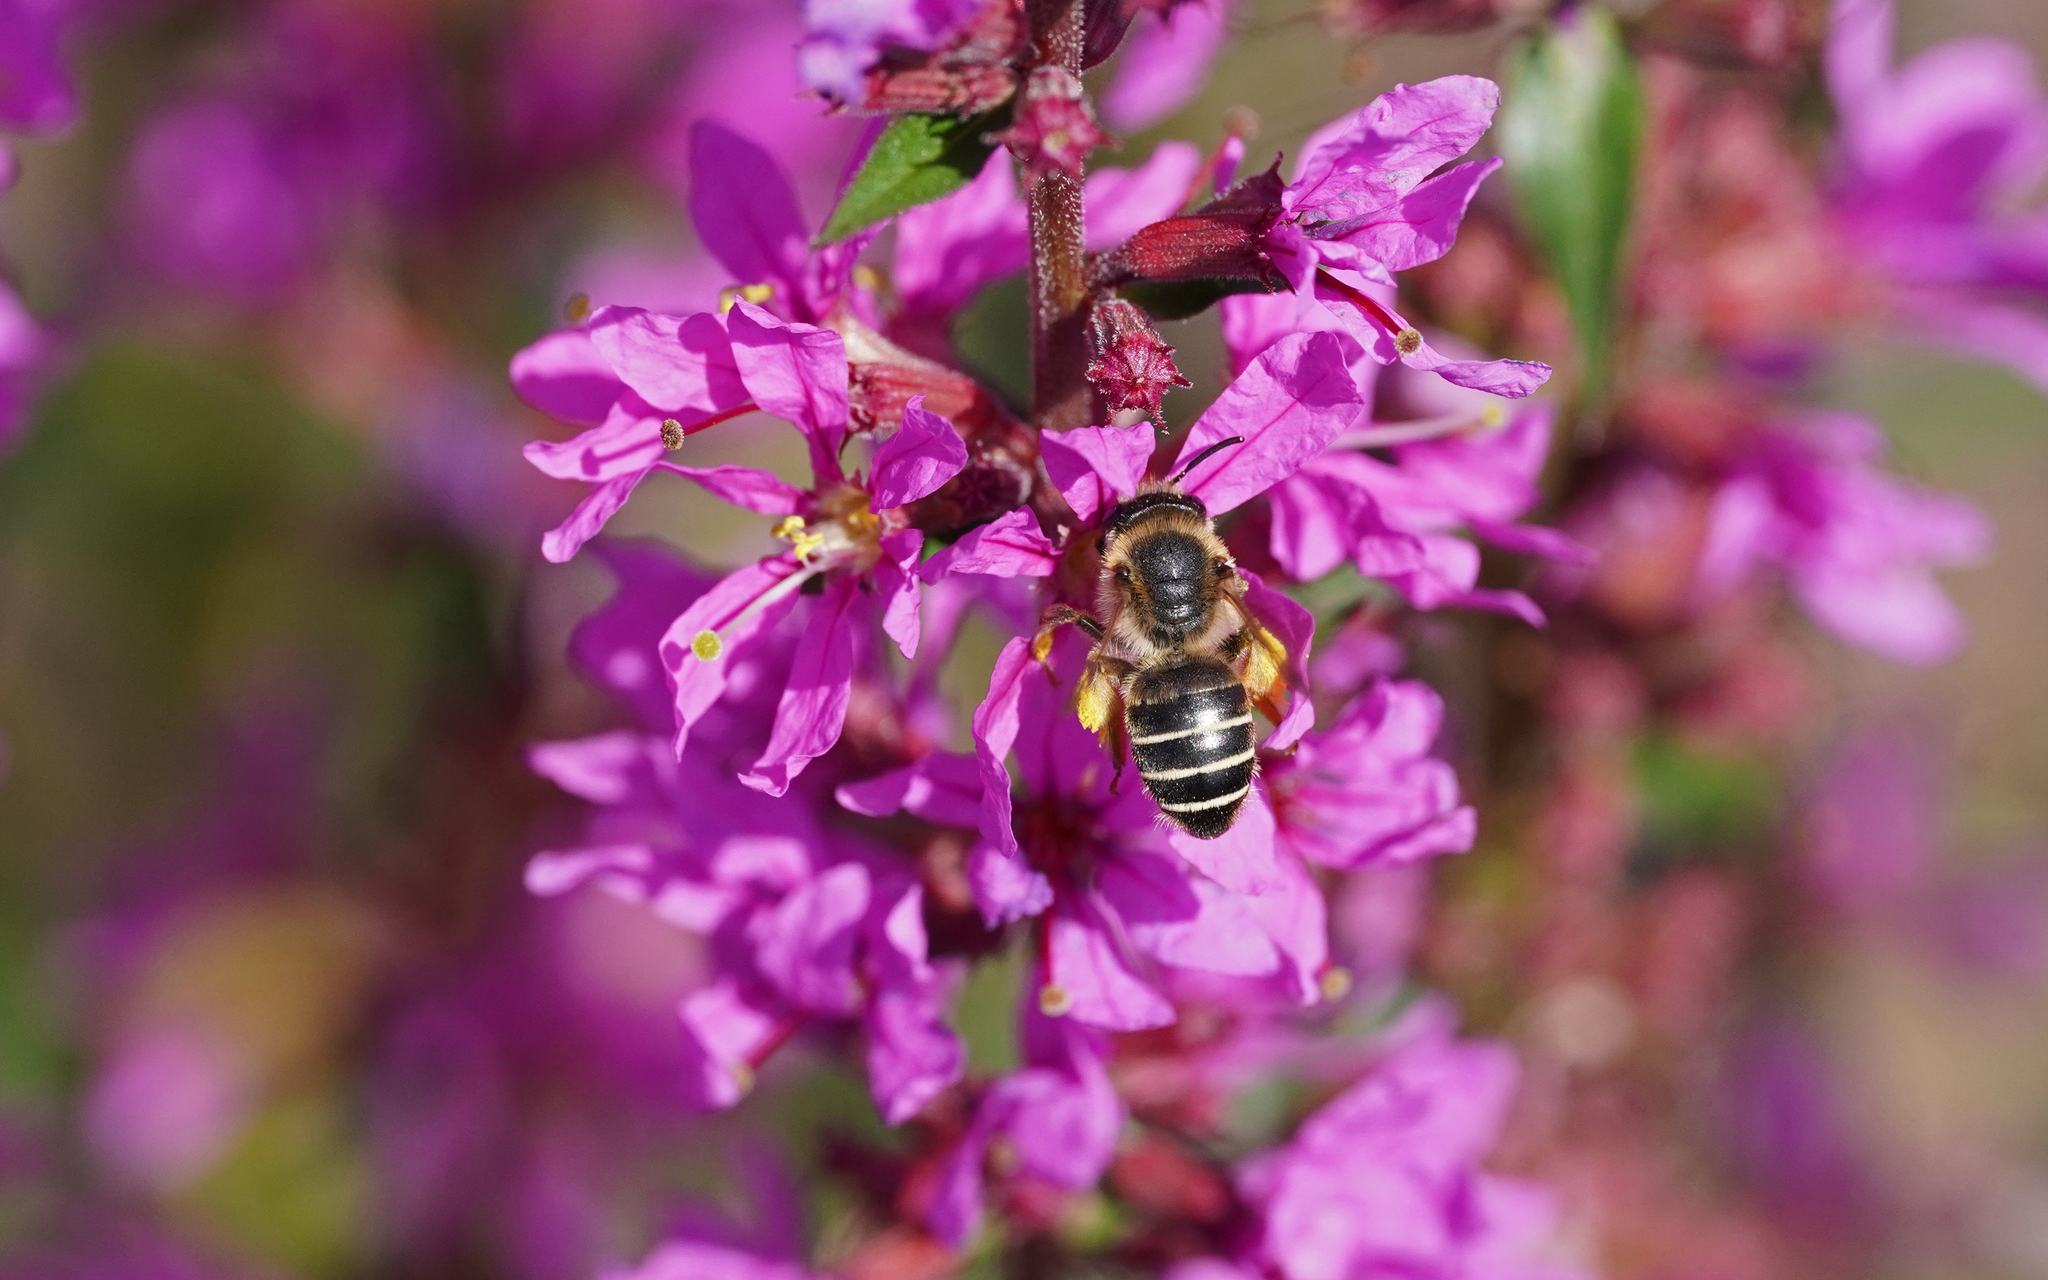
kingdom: Animalia
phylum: Arthropoda
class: Insecta
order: Hymenoptera
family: Melittidae
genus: Melitta
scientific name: Melitta nigricans
